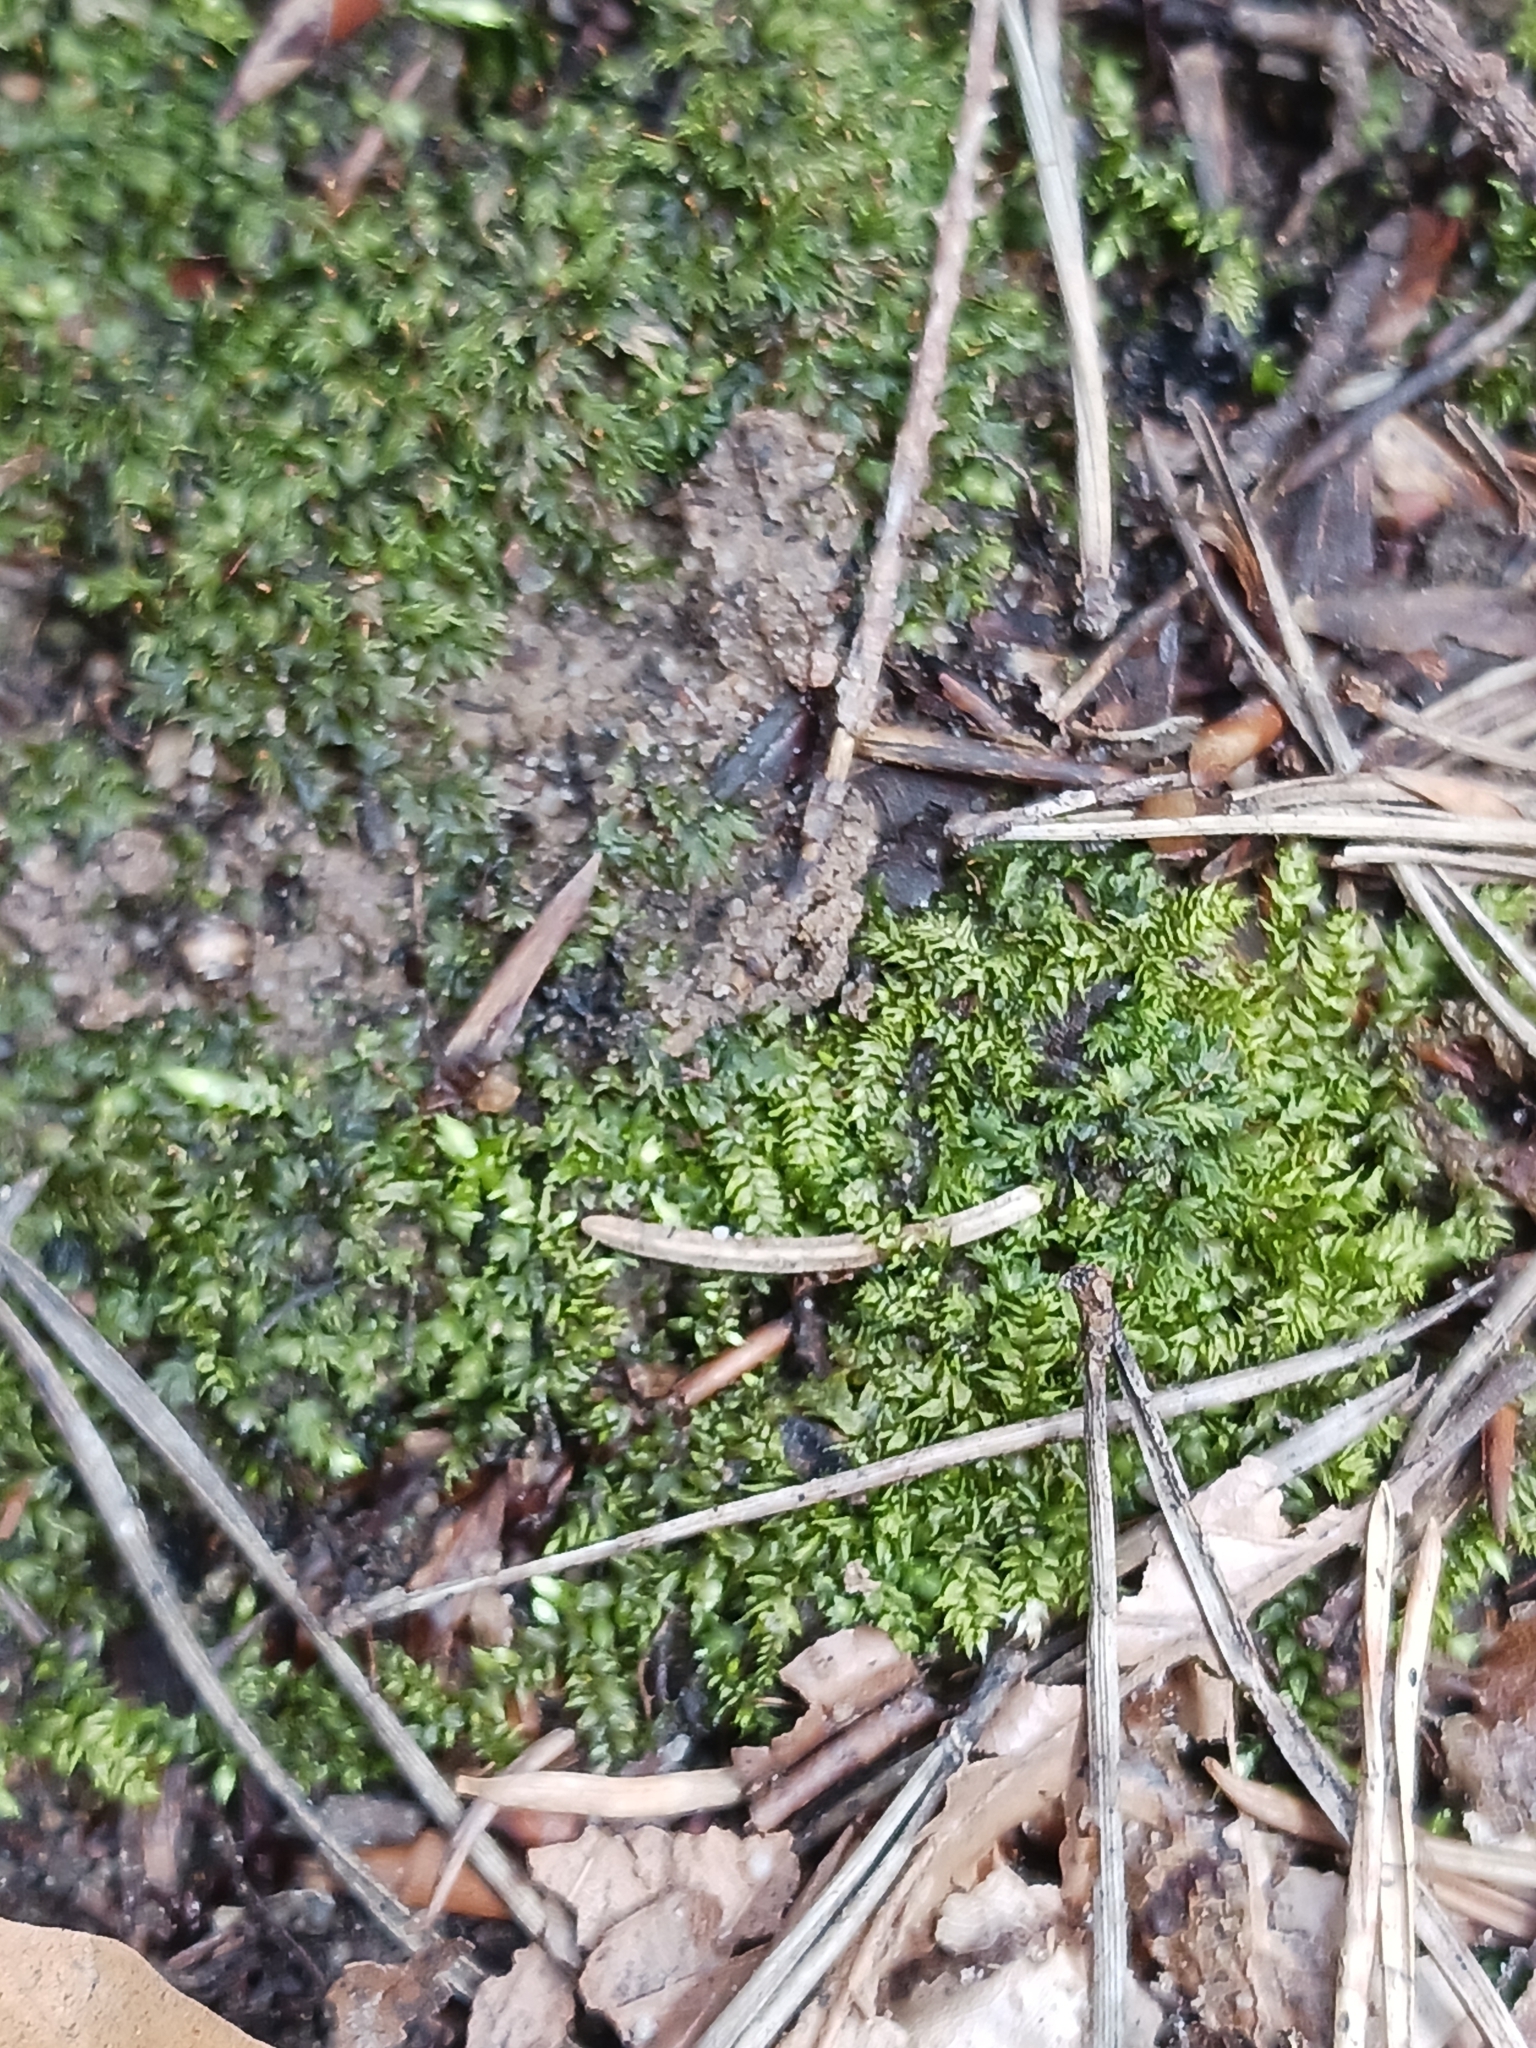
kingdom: Plantae
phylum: Bryophyta
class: Bryopsida
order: Dicranales
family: Fissidentaceae
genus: Fissidens
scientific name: Fissidens bryoides
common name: Lesser pocket moss
